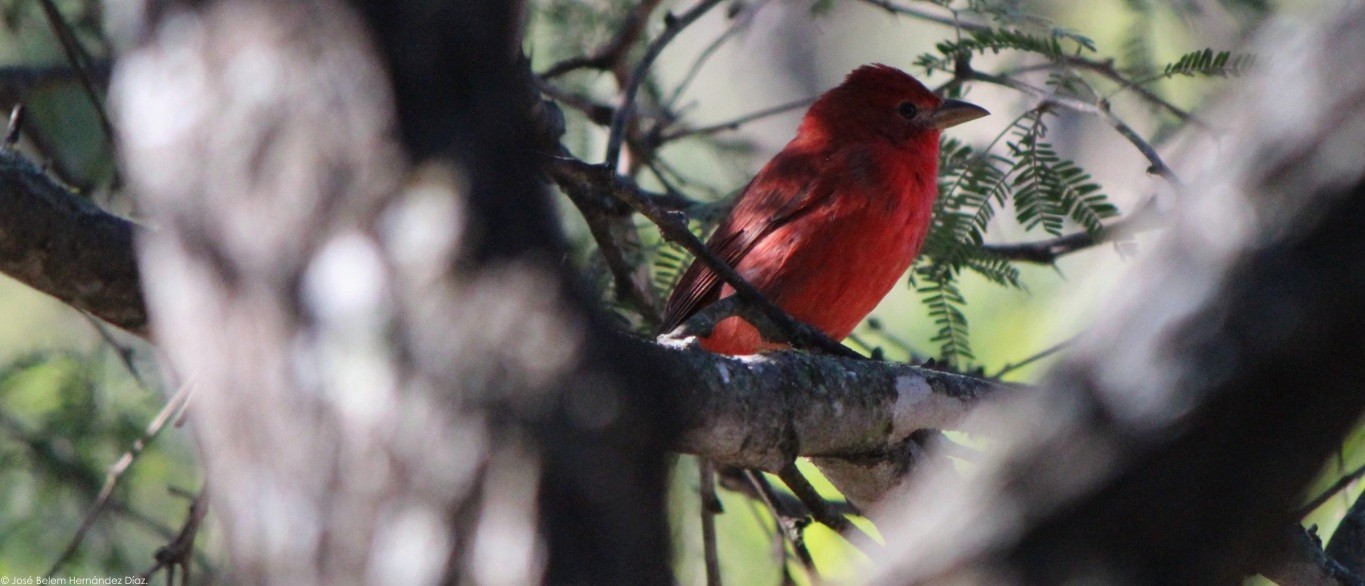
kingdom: Animalia
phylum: Chordata
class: Aves
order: Passeriformes
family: Cardinalidae
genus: Piranga
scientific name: Piranga rubra
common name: Summer tanager
